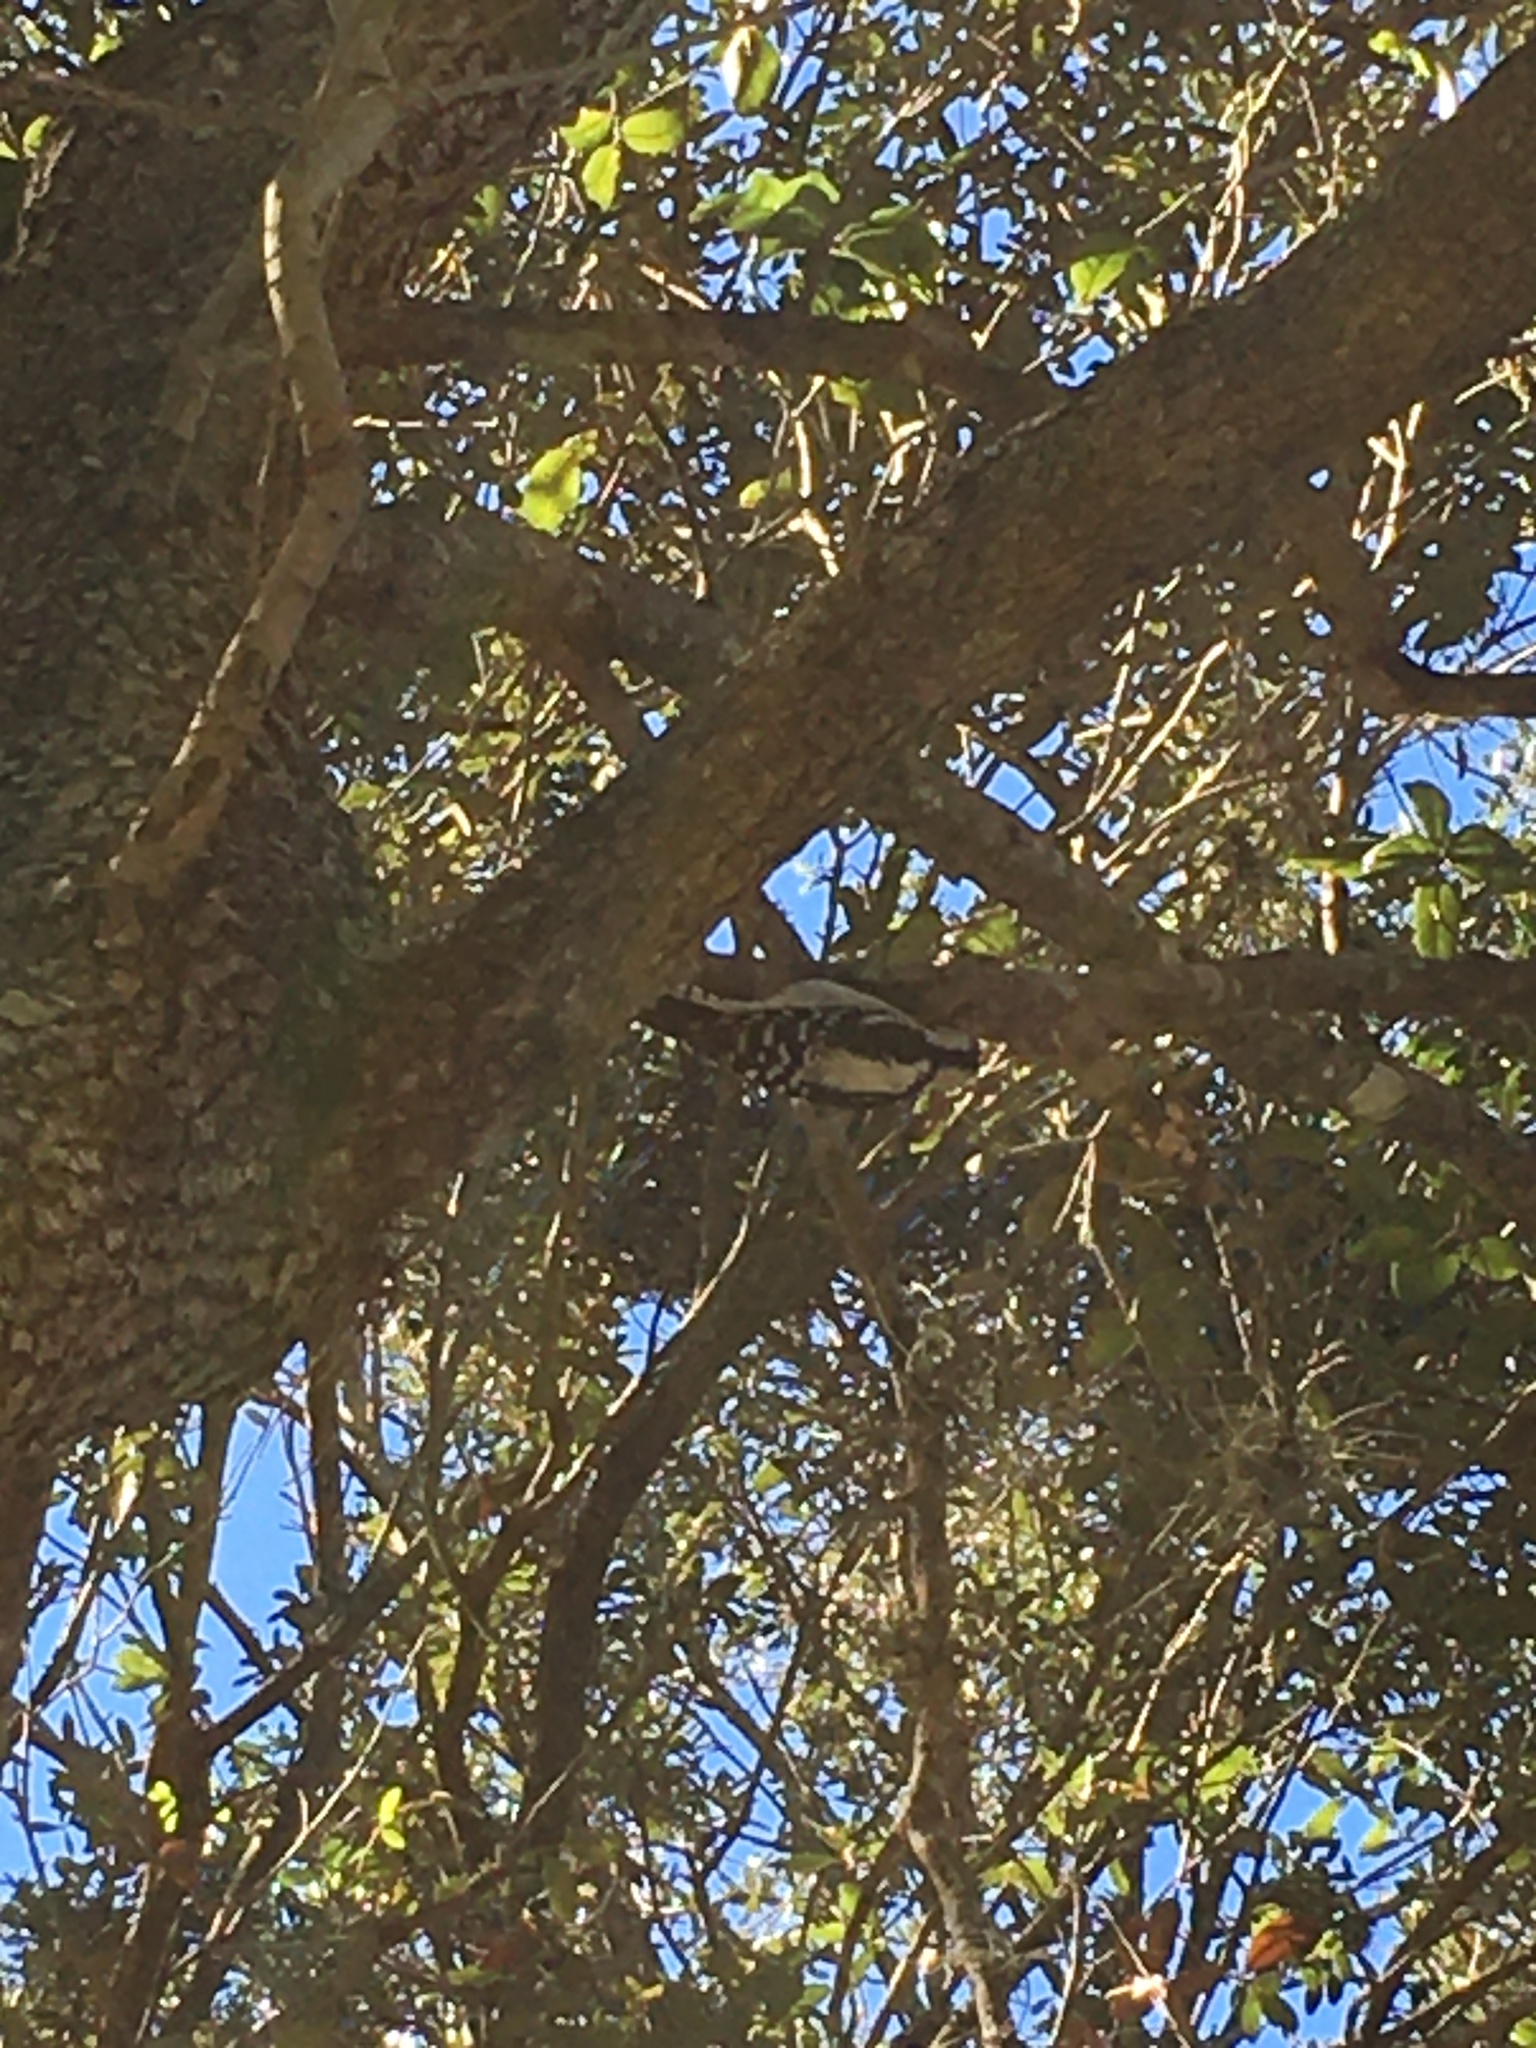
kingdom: Animalia
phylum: Chordata
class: Aves
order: Piciformes
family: Picidae
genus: Dryobates
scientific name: Dryobates pubescens
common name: Downy woodpecker
